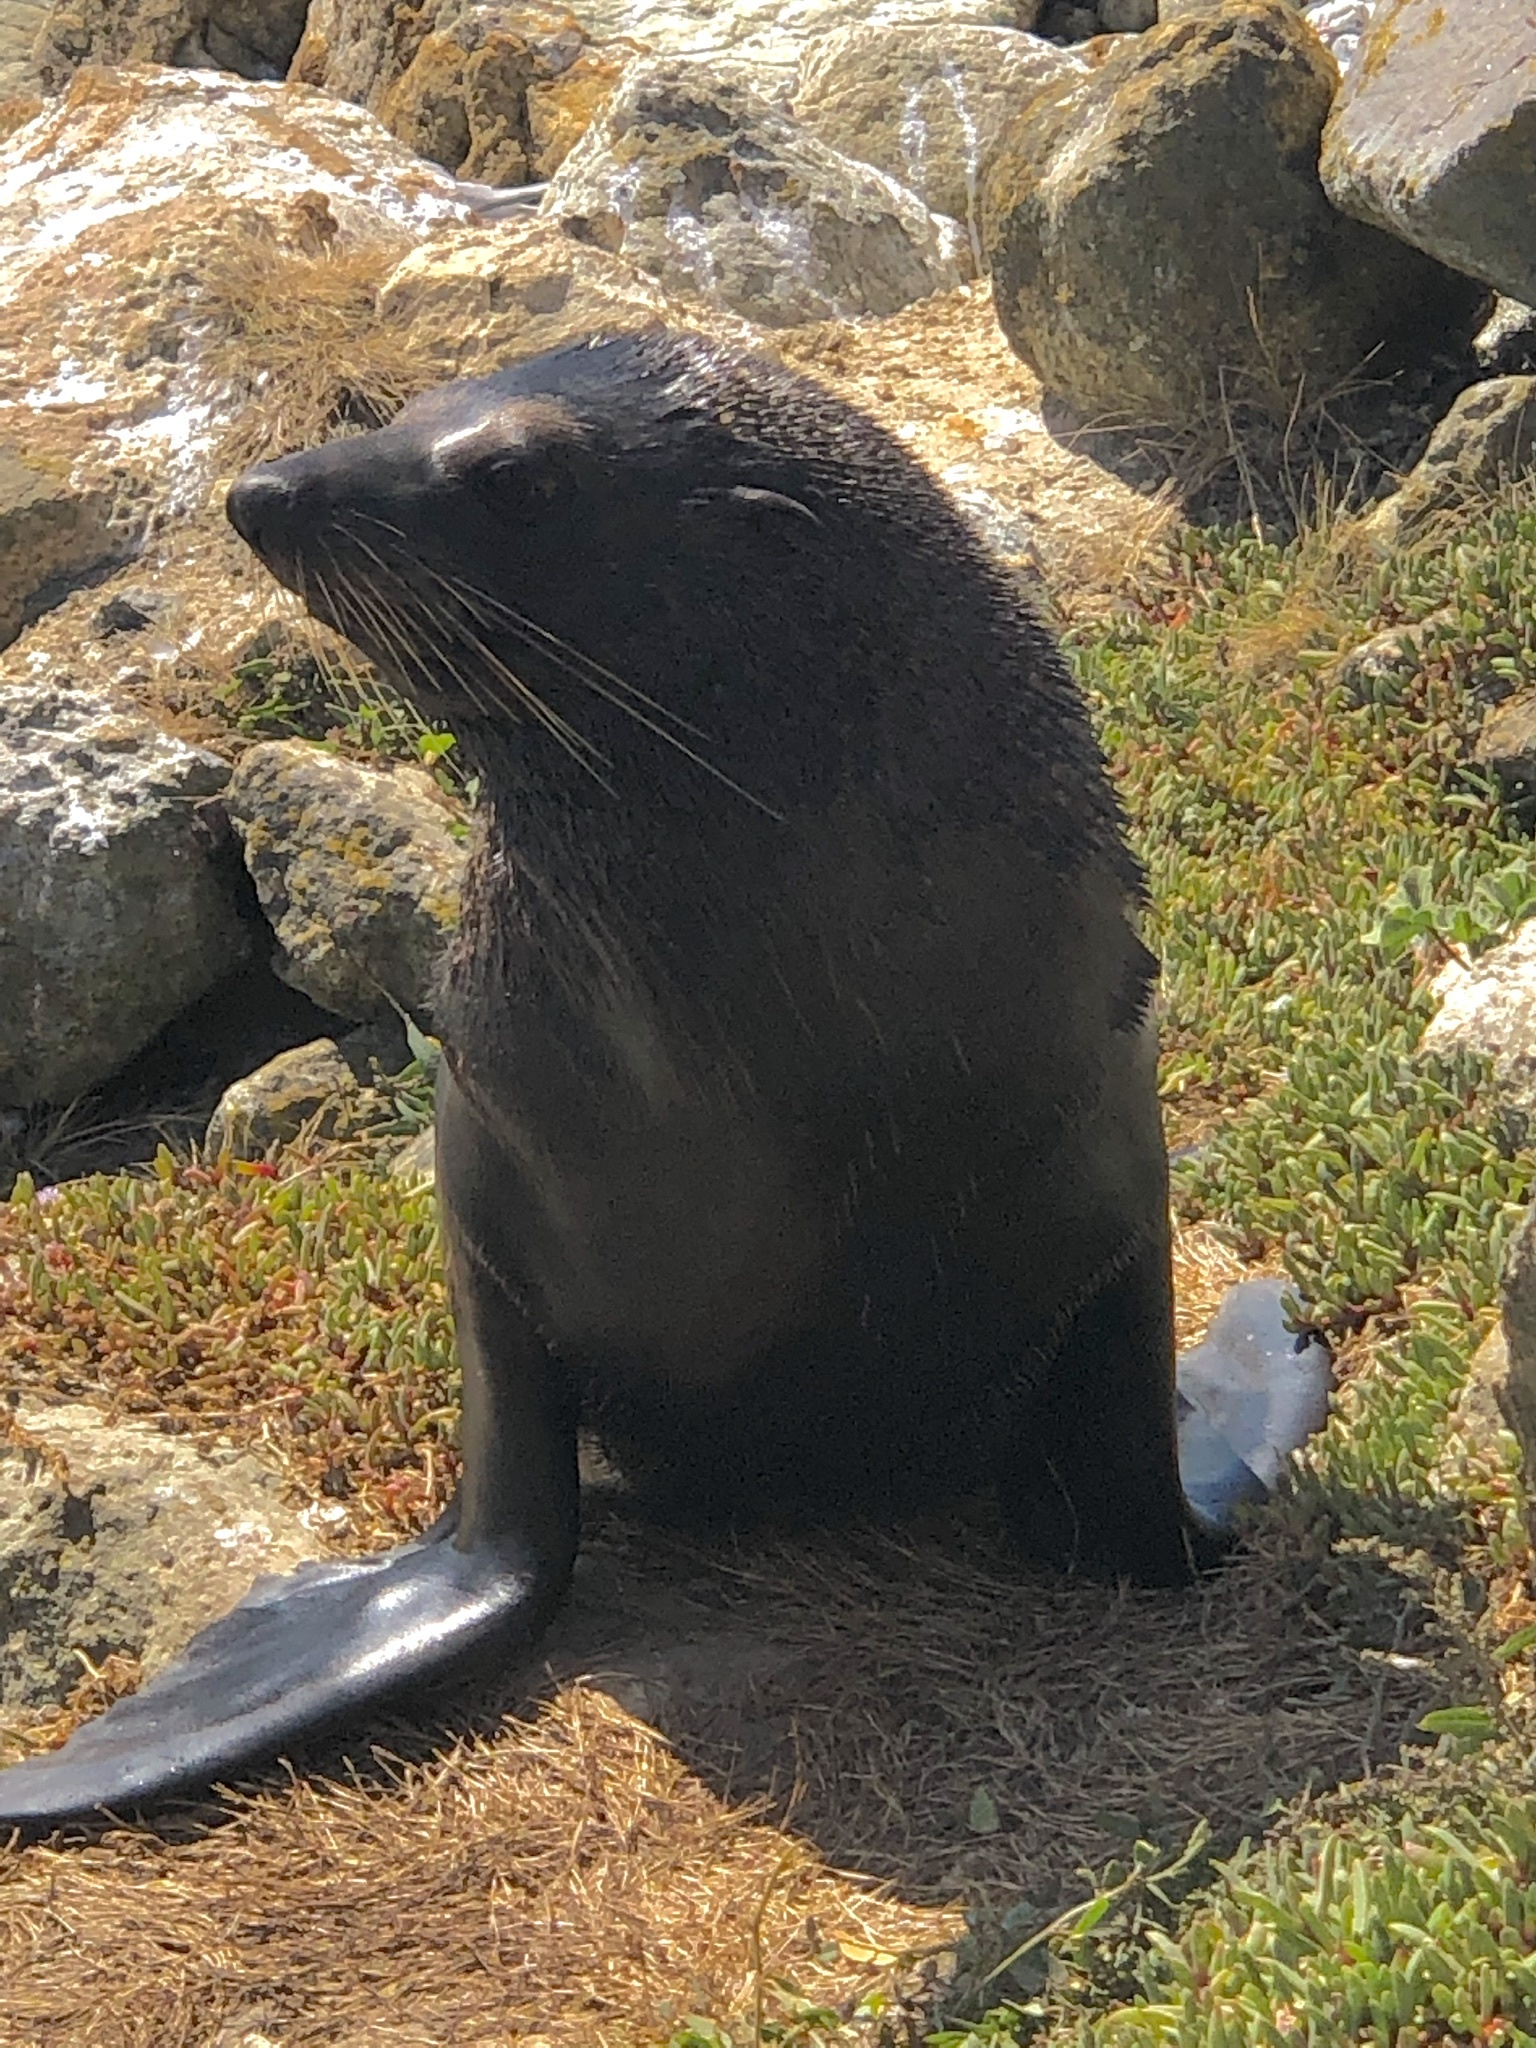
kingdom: Animalia
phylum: Chordata
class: Mammalia
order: Carnivora
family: Otariidae
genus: Arctocephalus
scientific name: Arctocephalus forsteri
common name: New zealand fur seal
